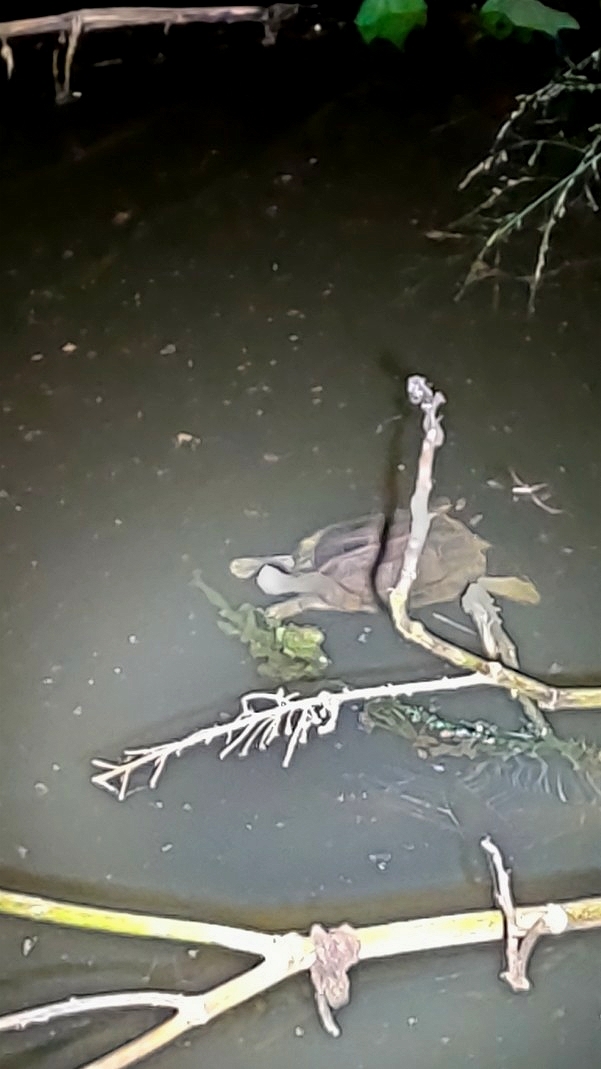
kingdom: Animalia
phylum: Chordata
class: Testudines
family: Geoemydidae
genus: Melanochelys
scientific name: Melanochelys trijuga
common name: Indian black turtle
